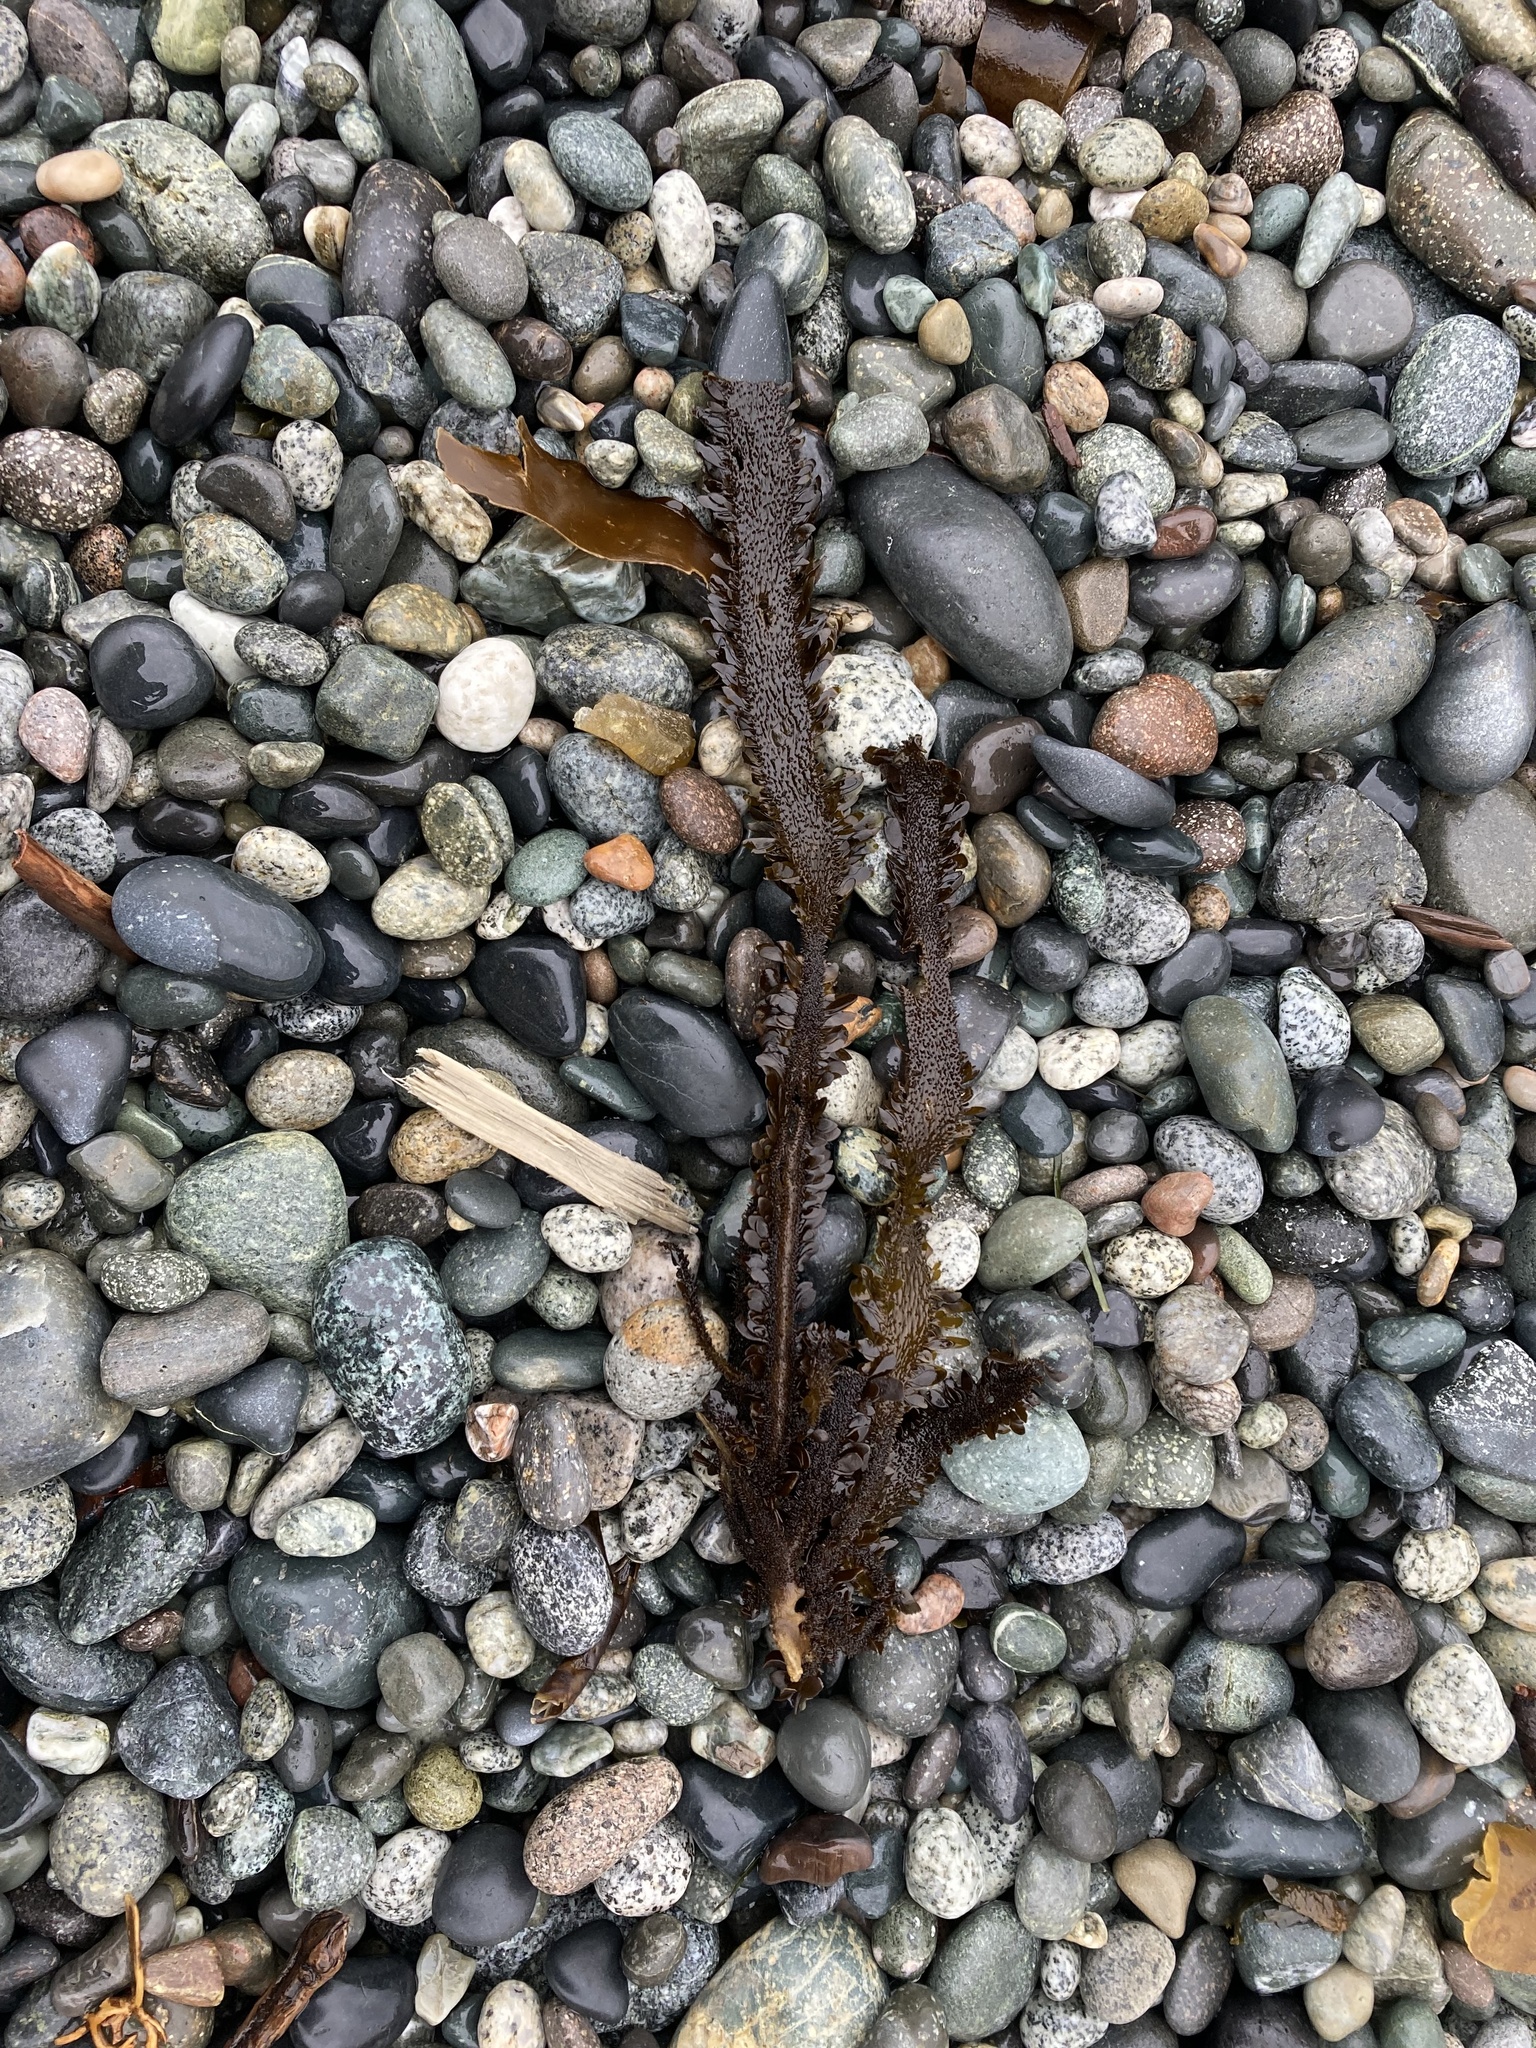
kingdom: Chromista
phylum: Ochrophyta
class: Phaeophyceae
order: Laminariales
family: Lessoniaceae
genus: Egregia
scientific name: Egregia menziesii
